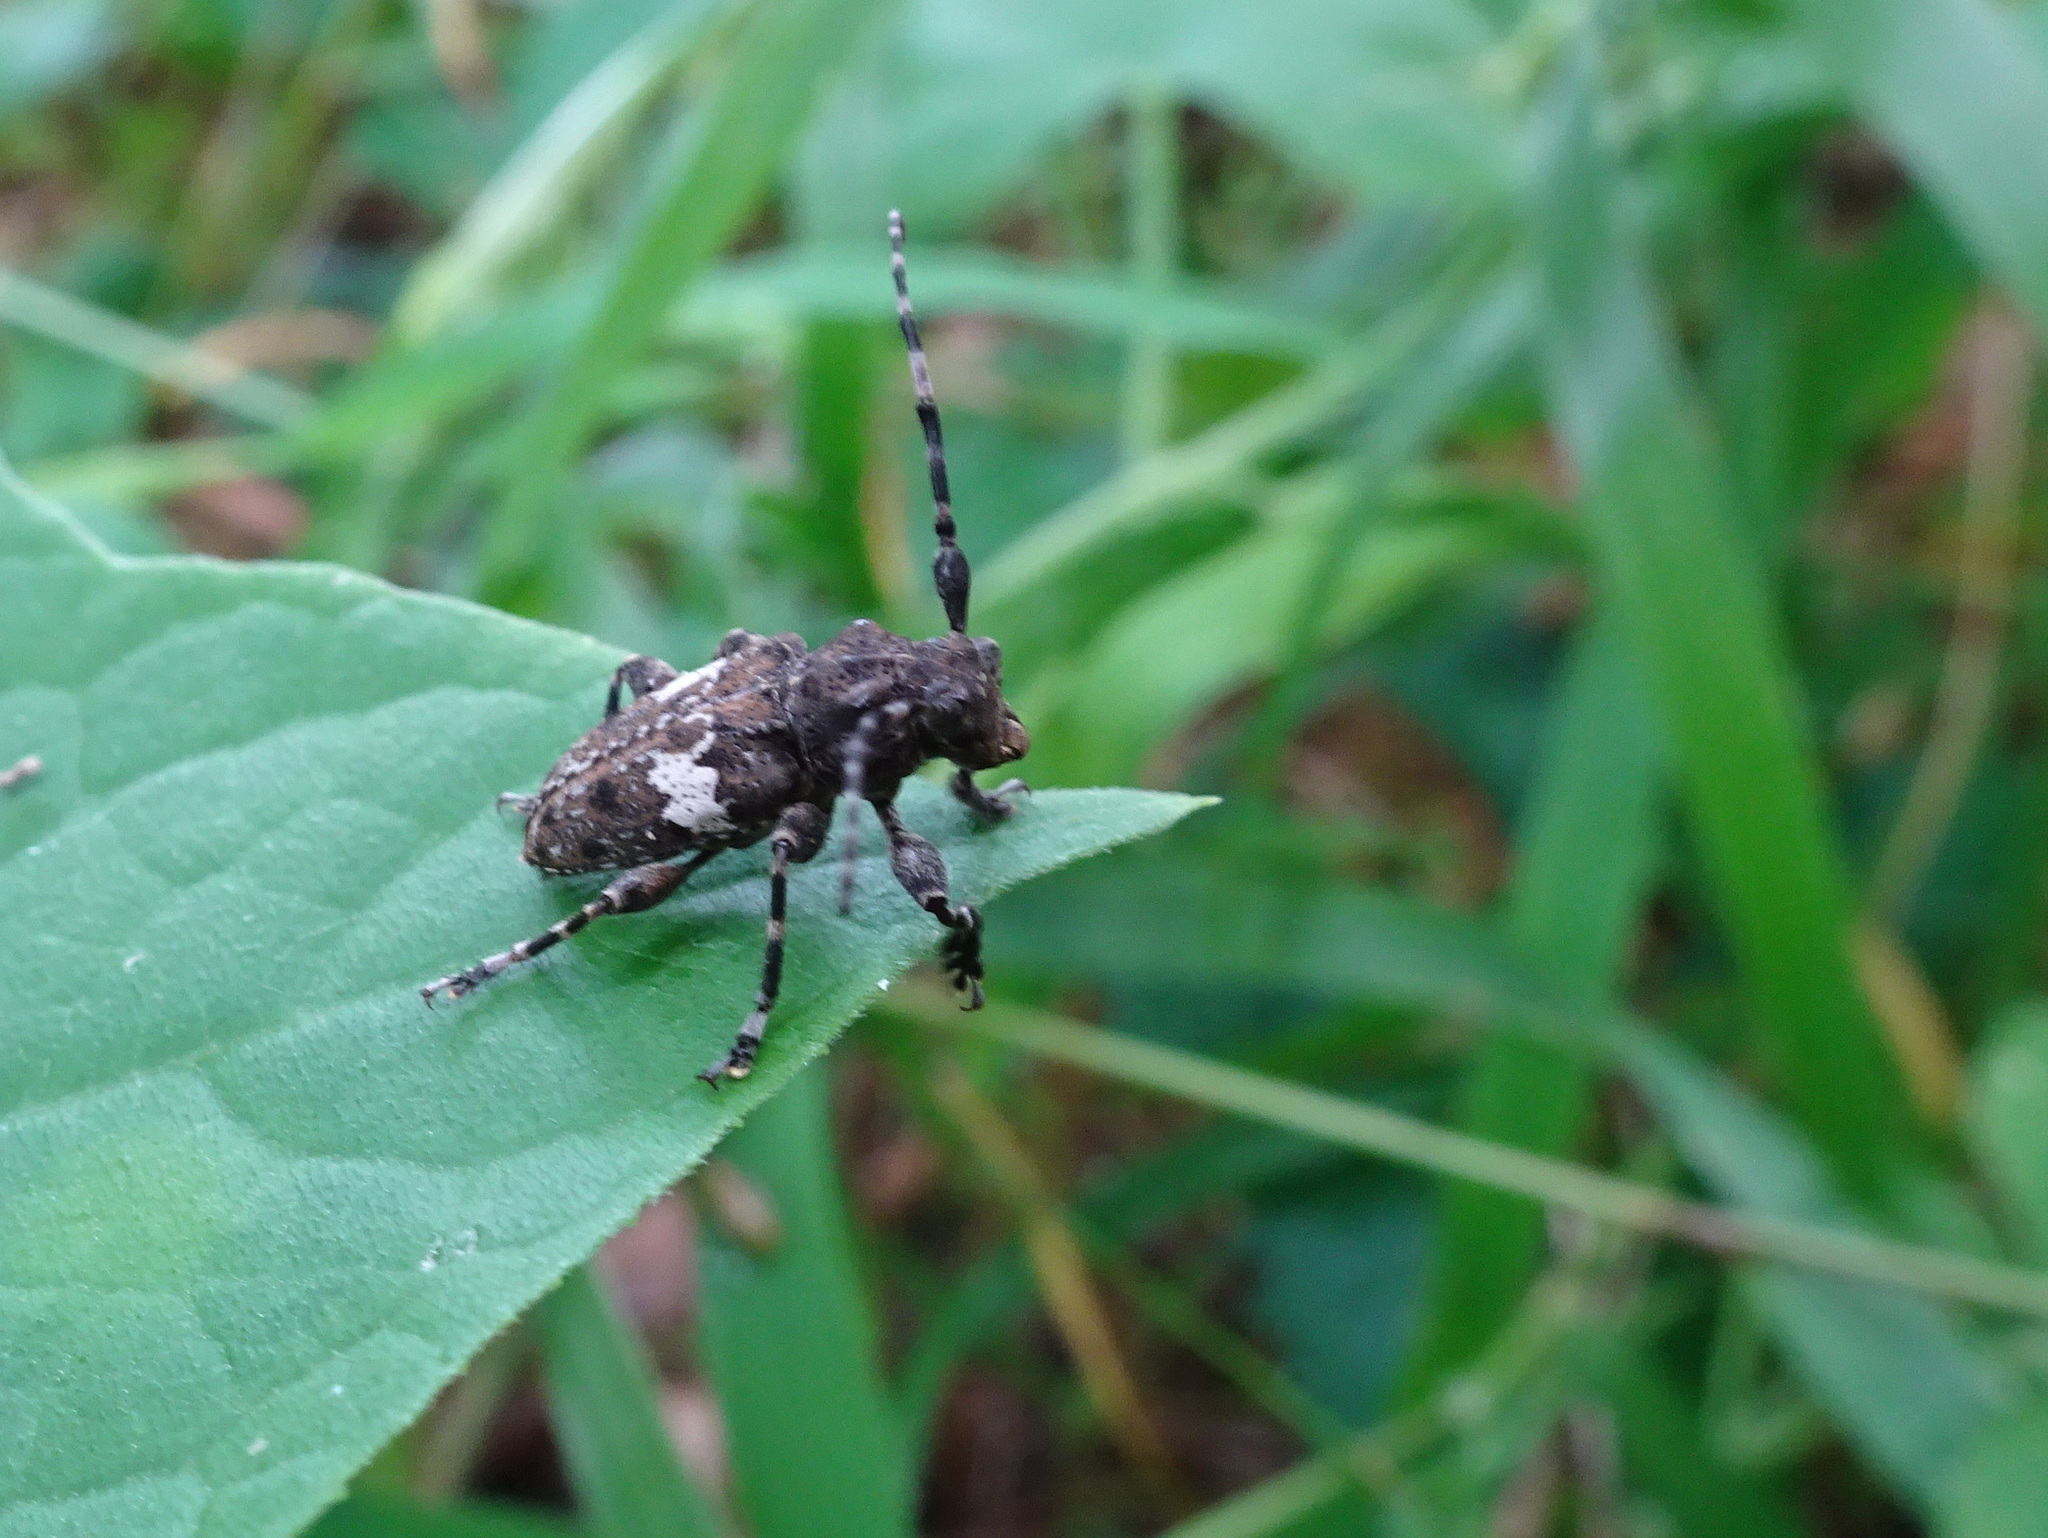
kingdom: Animalia
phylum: Arthropoda
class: Insecta
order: Coleoptera
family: Cerambycidae
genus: Acanthoderes
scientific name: Acanthoderes quadrigibba
